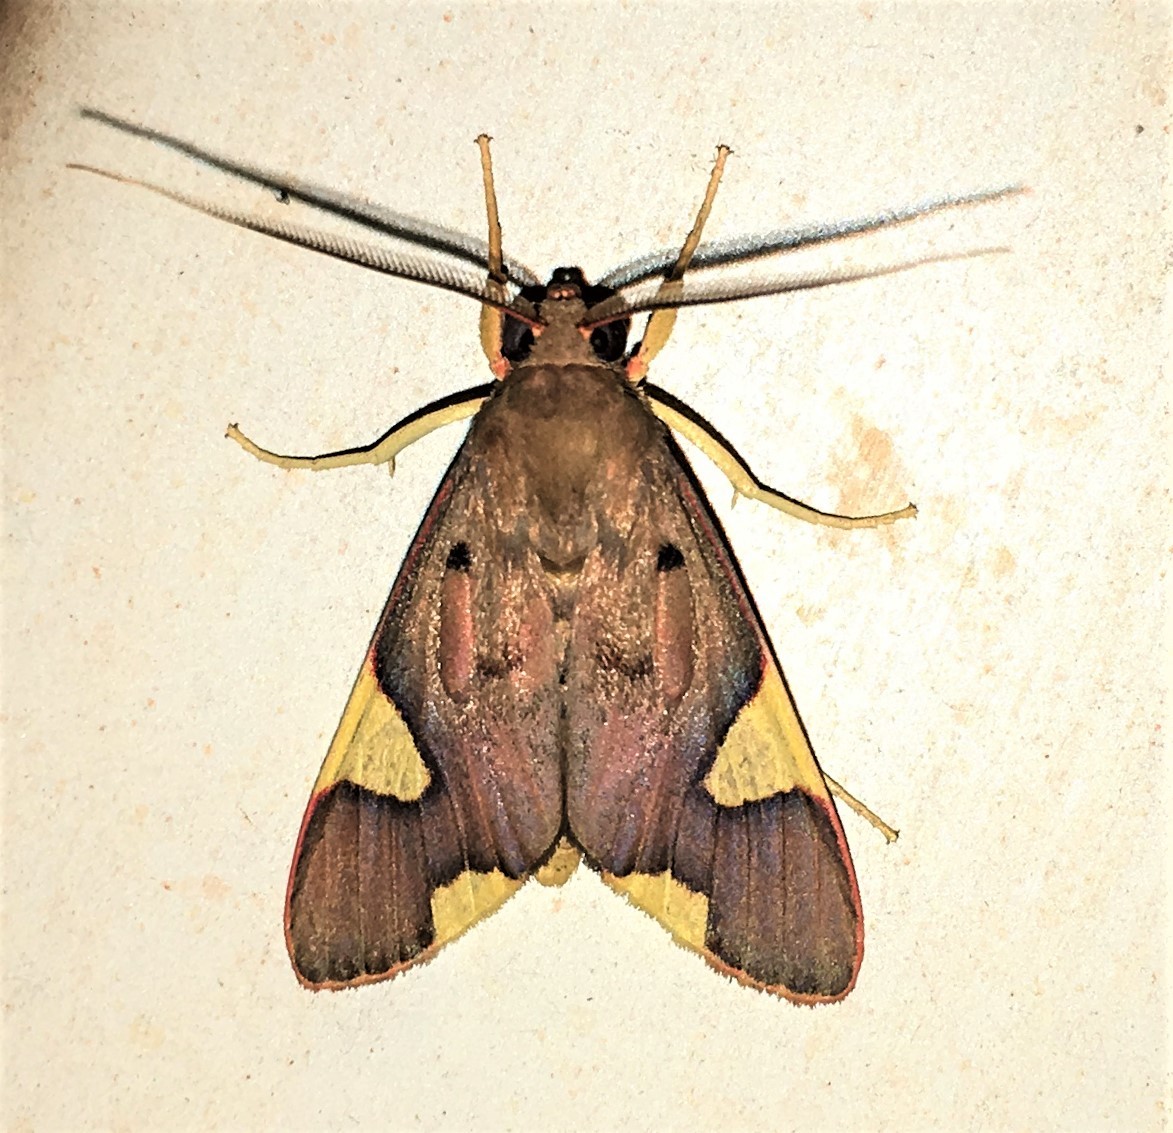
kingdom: Animalia
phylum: Arthropoda
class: Insecta
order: Lepidoptera
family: Erebidae
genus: Trichromia
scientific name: Trichromia cotes
